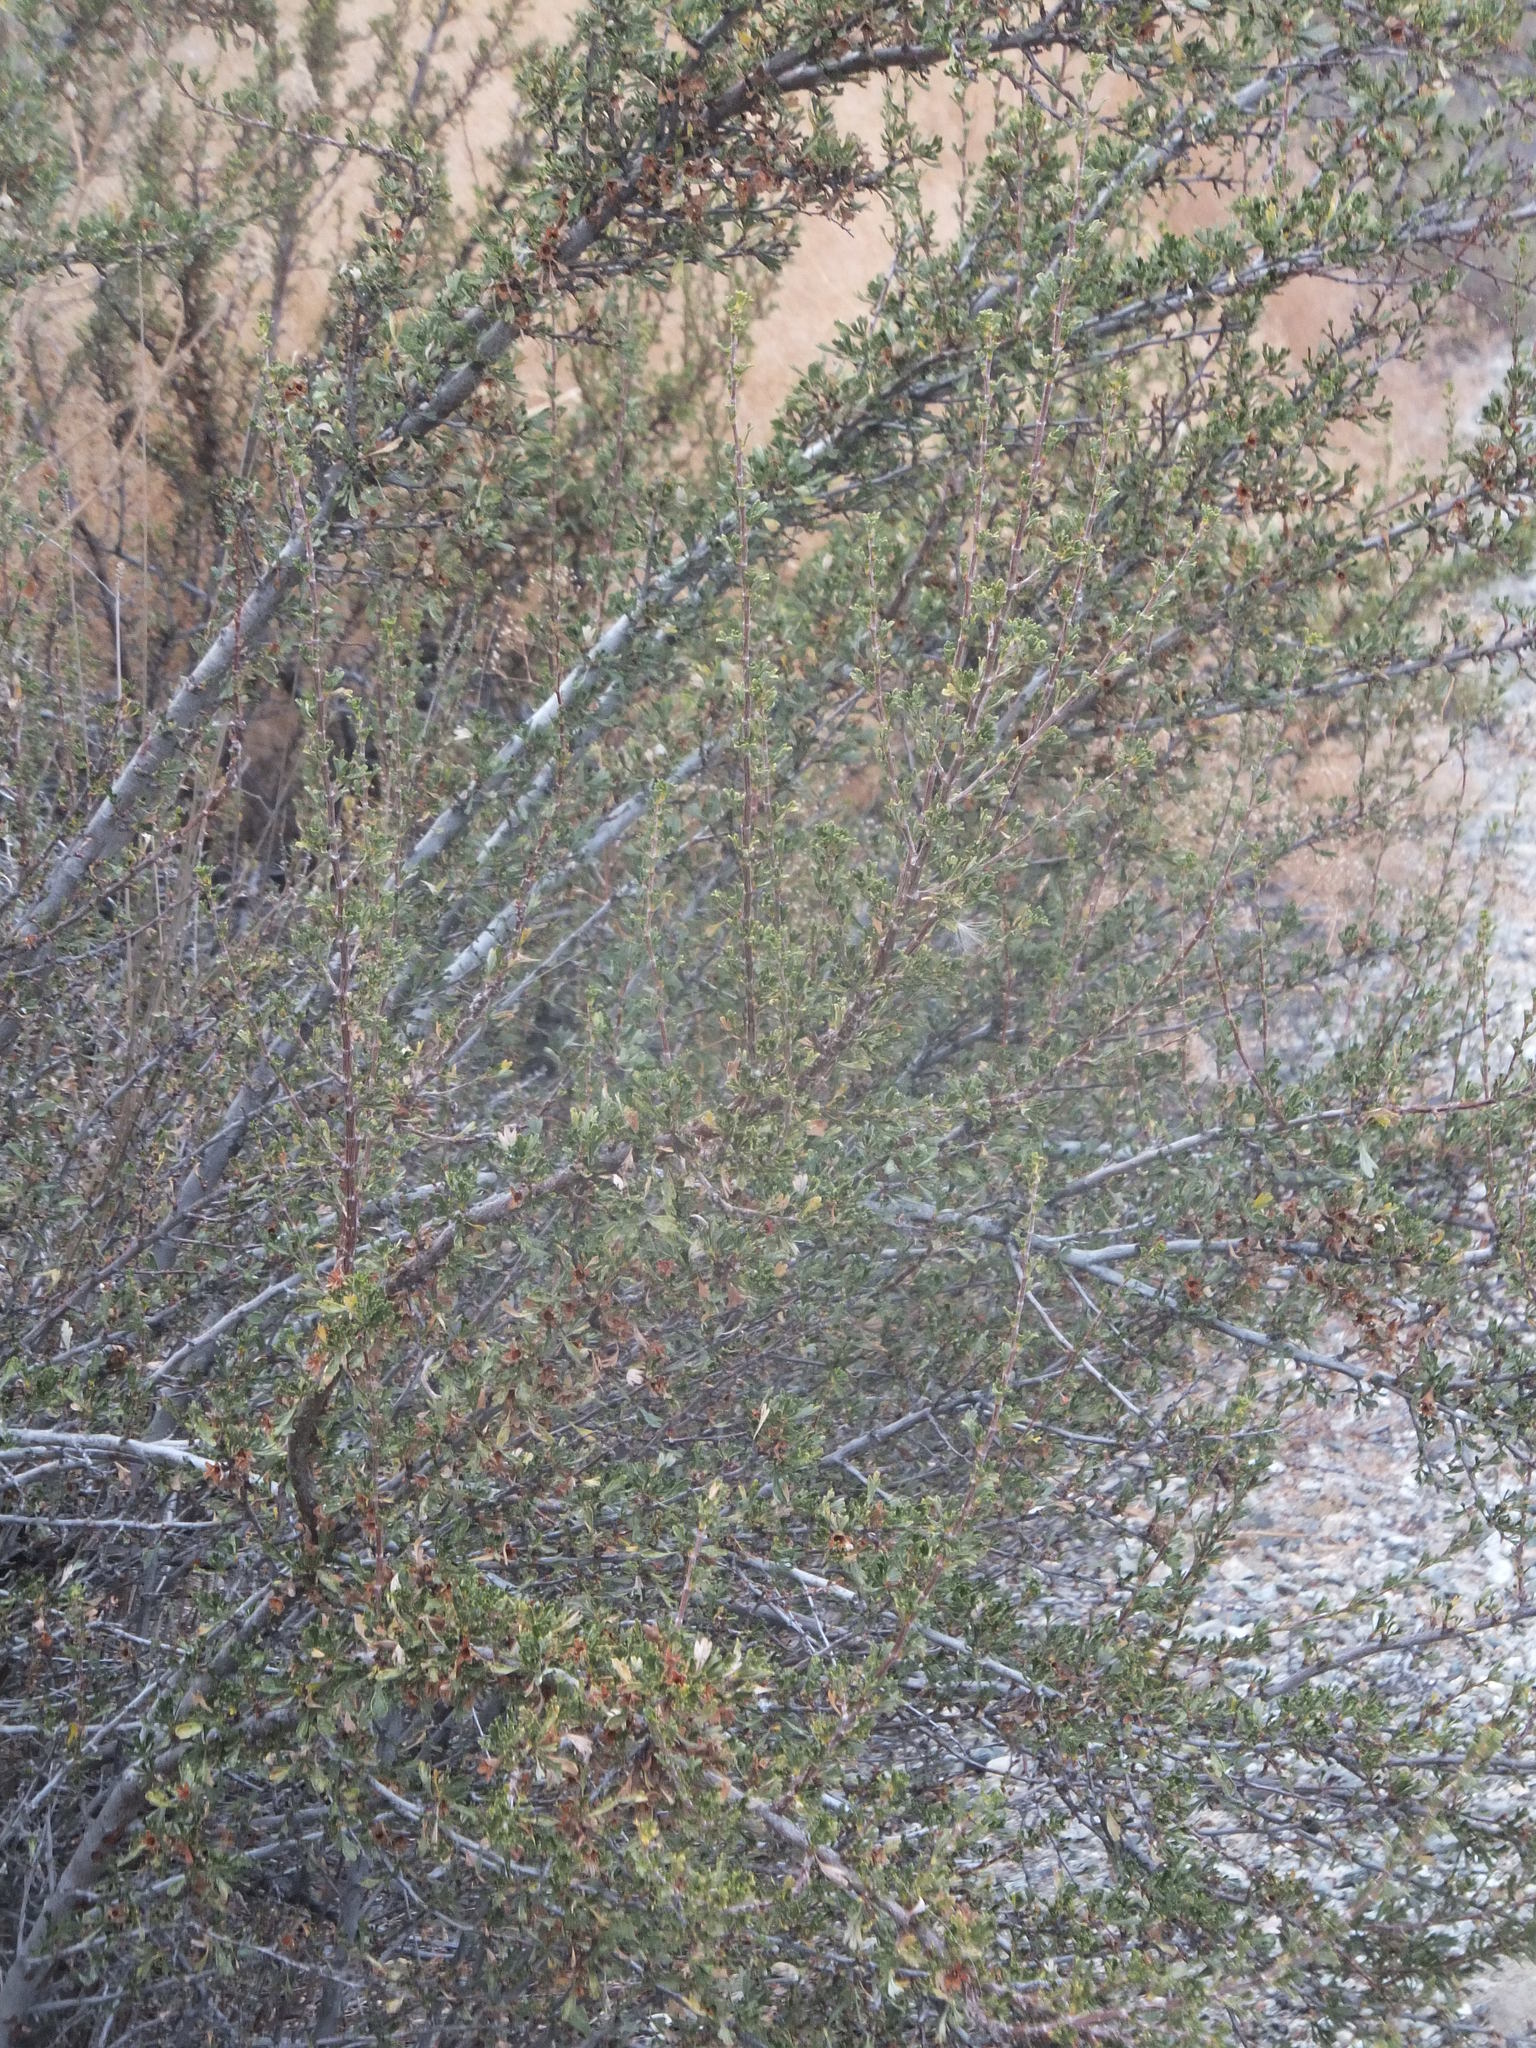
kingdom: Plantae
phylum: Tracheophyta
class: Magnoliopsida
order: Rosales
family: Rosaceae
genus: Purshia
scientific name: Purshia tridentata
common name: Antelope bitterbrush
